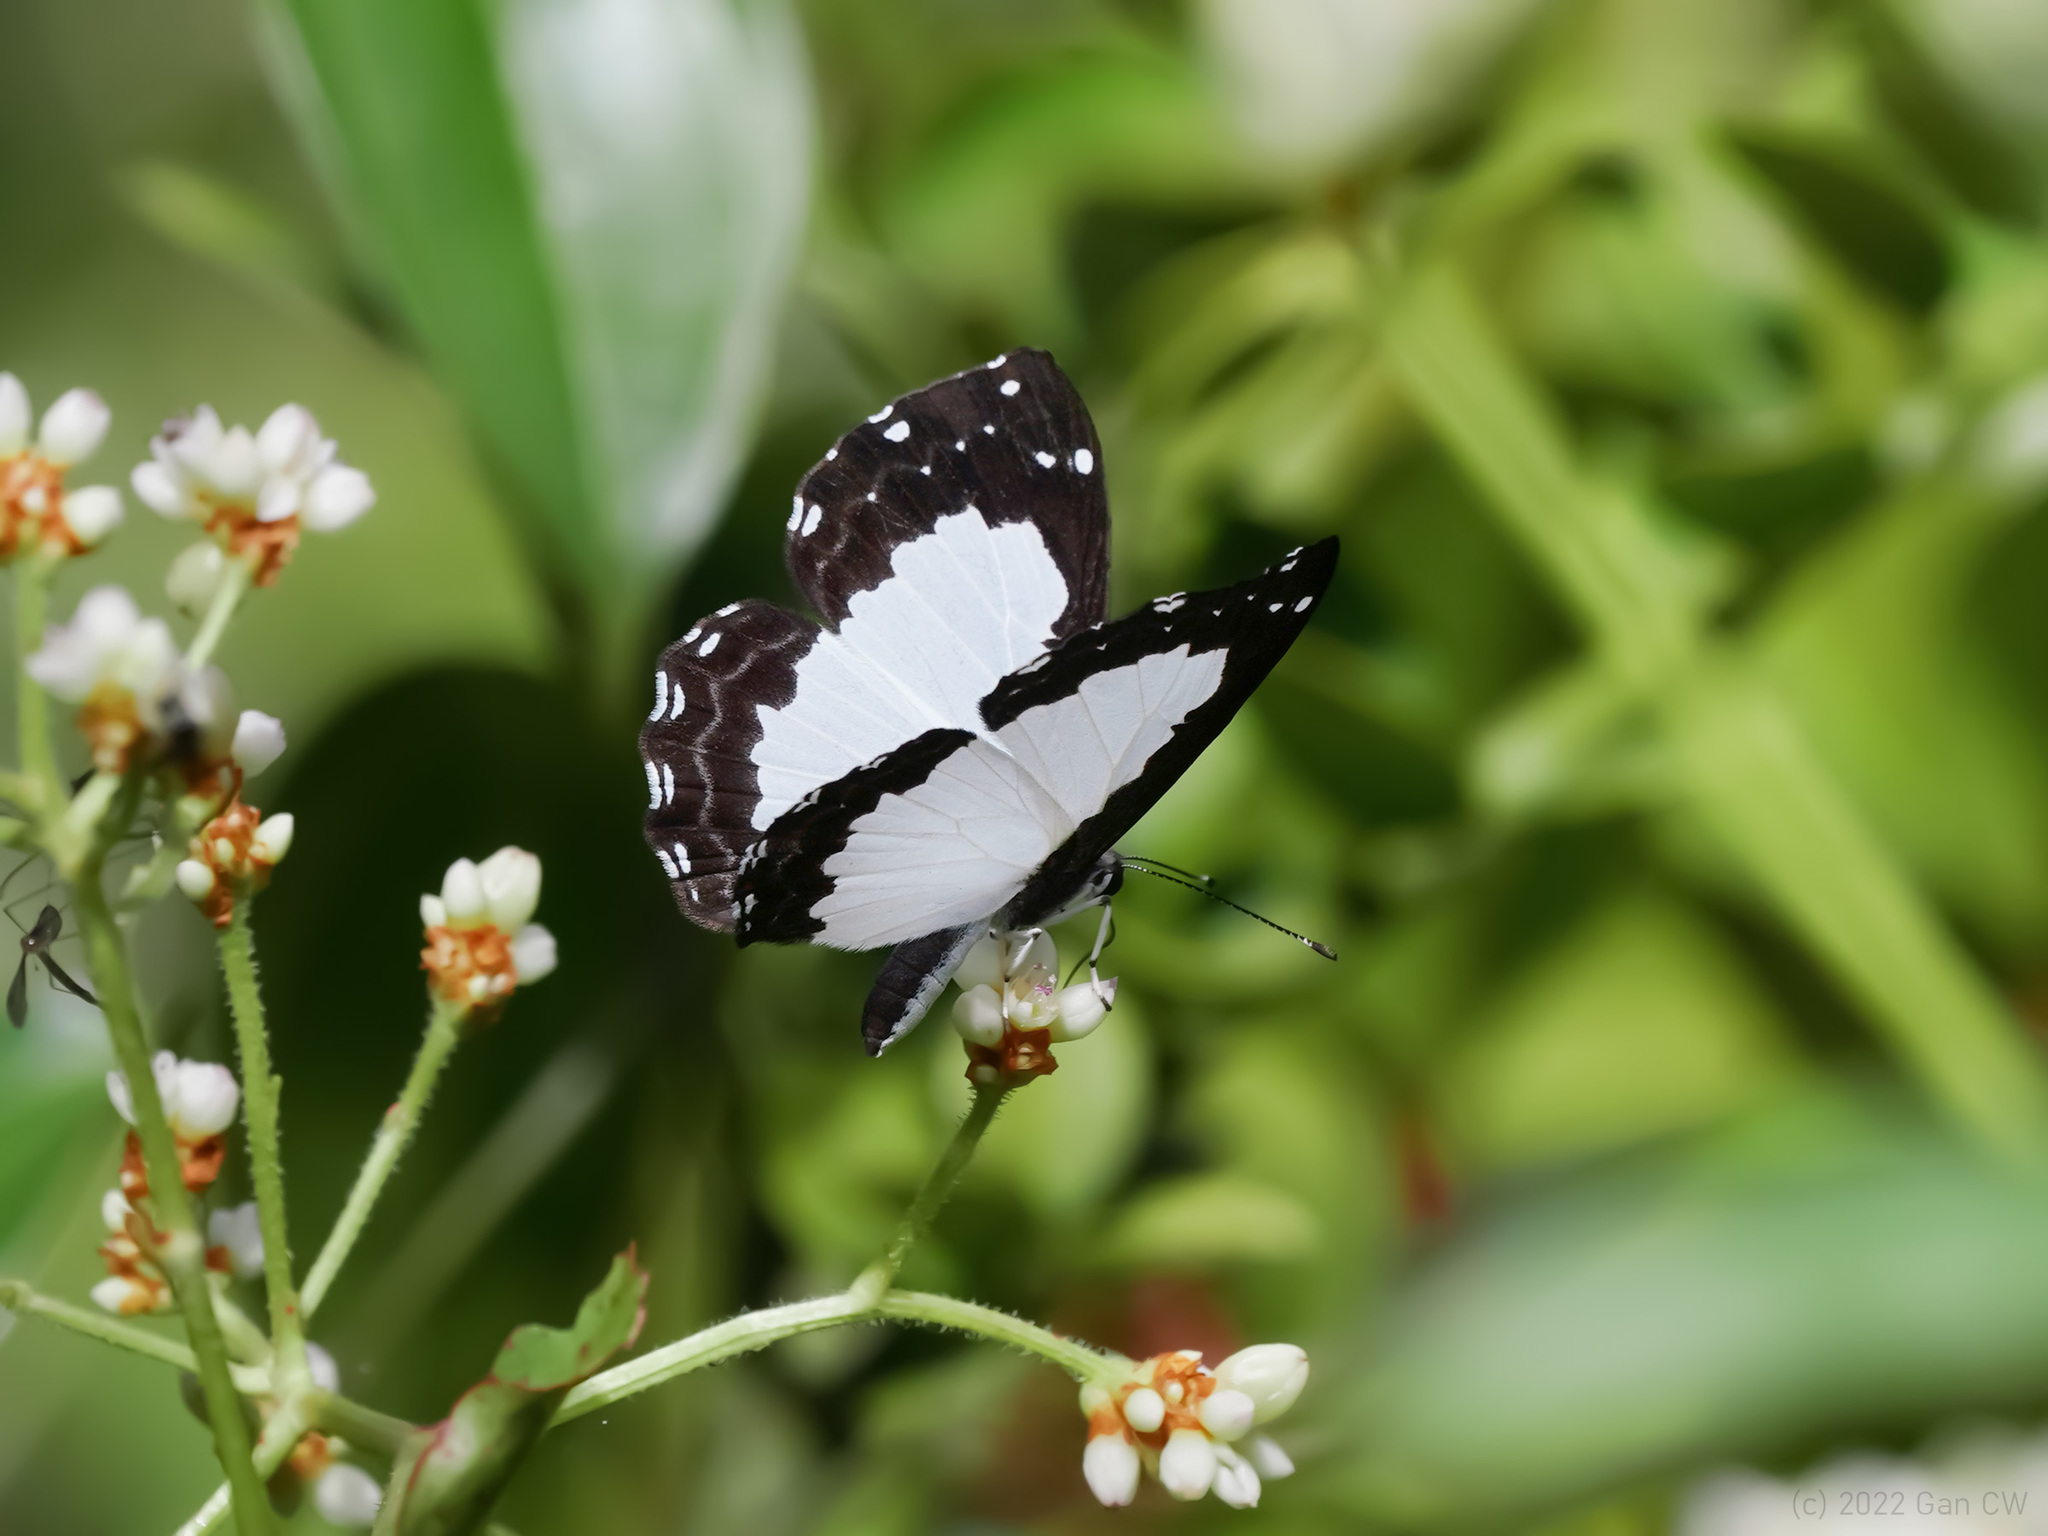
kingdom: Animalia
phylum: Arthropoda
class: Insecta
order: Lepidoptera
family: Riodinidae
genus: Stiboges
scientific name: Stiboges nymphidia
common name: Columbine
